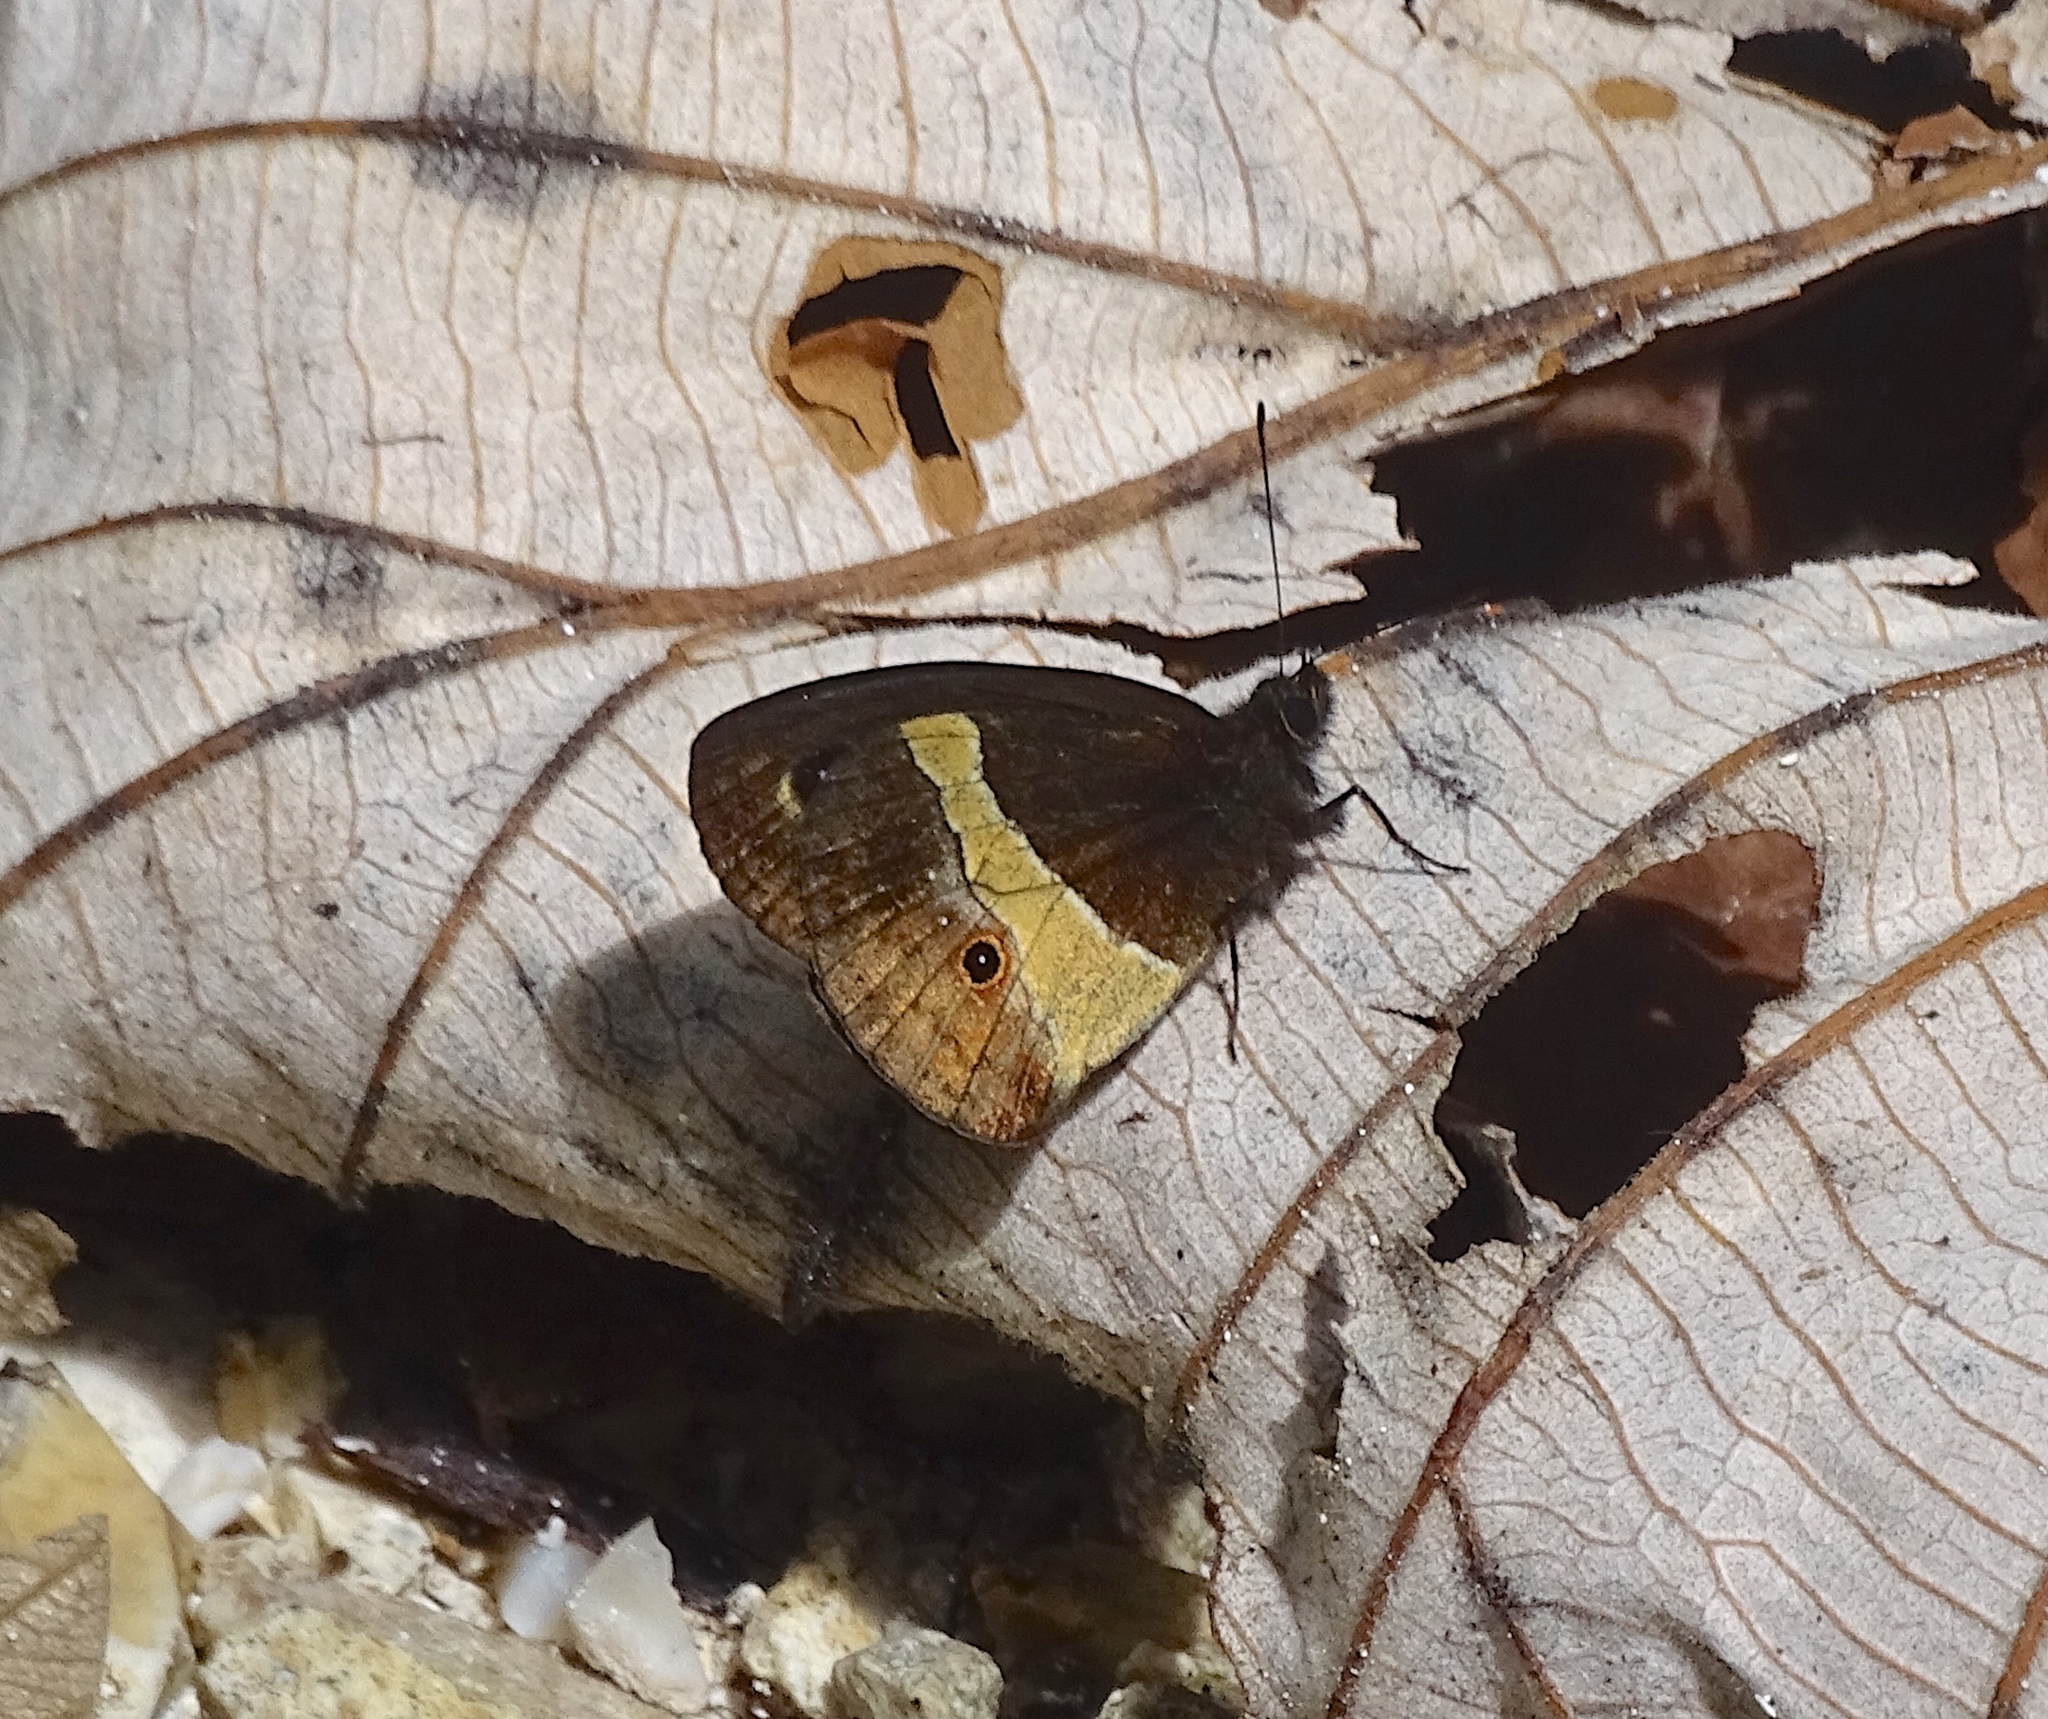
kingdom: Animalia
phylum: Arthropoda
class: Insecta
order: Lepidoptera
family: Nymphalidae
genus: Calisto
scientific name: Calisto archebates
